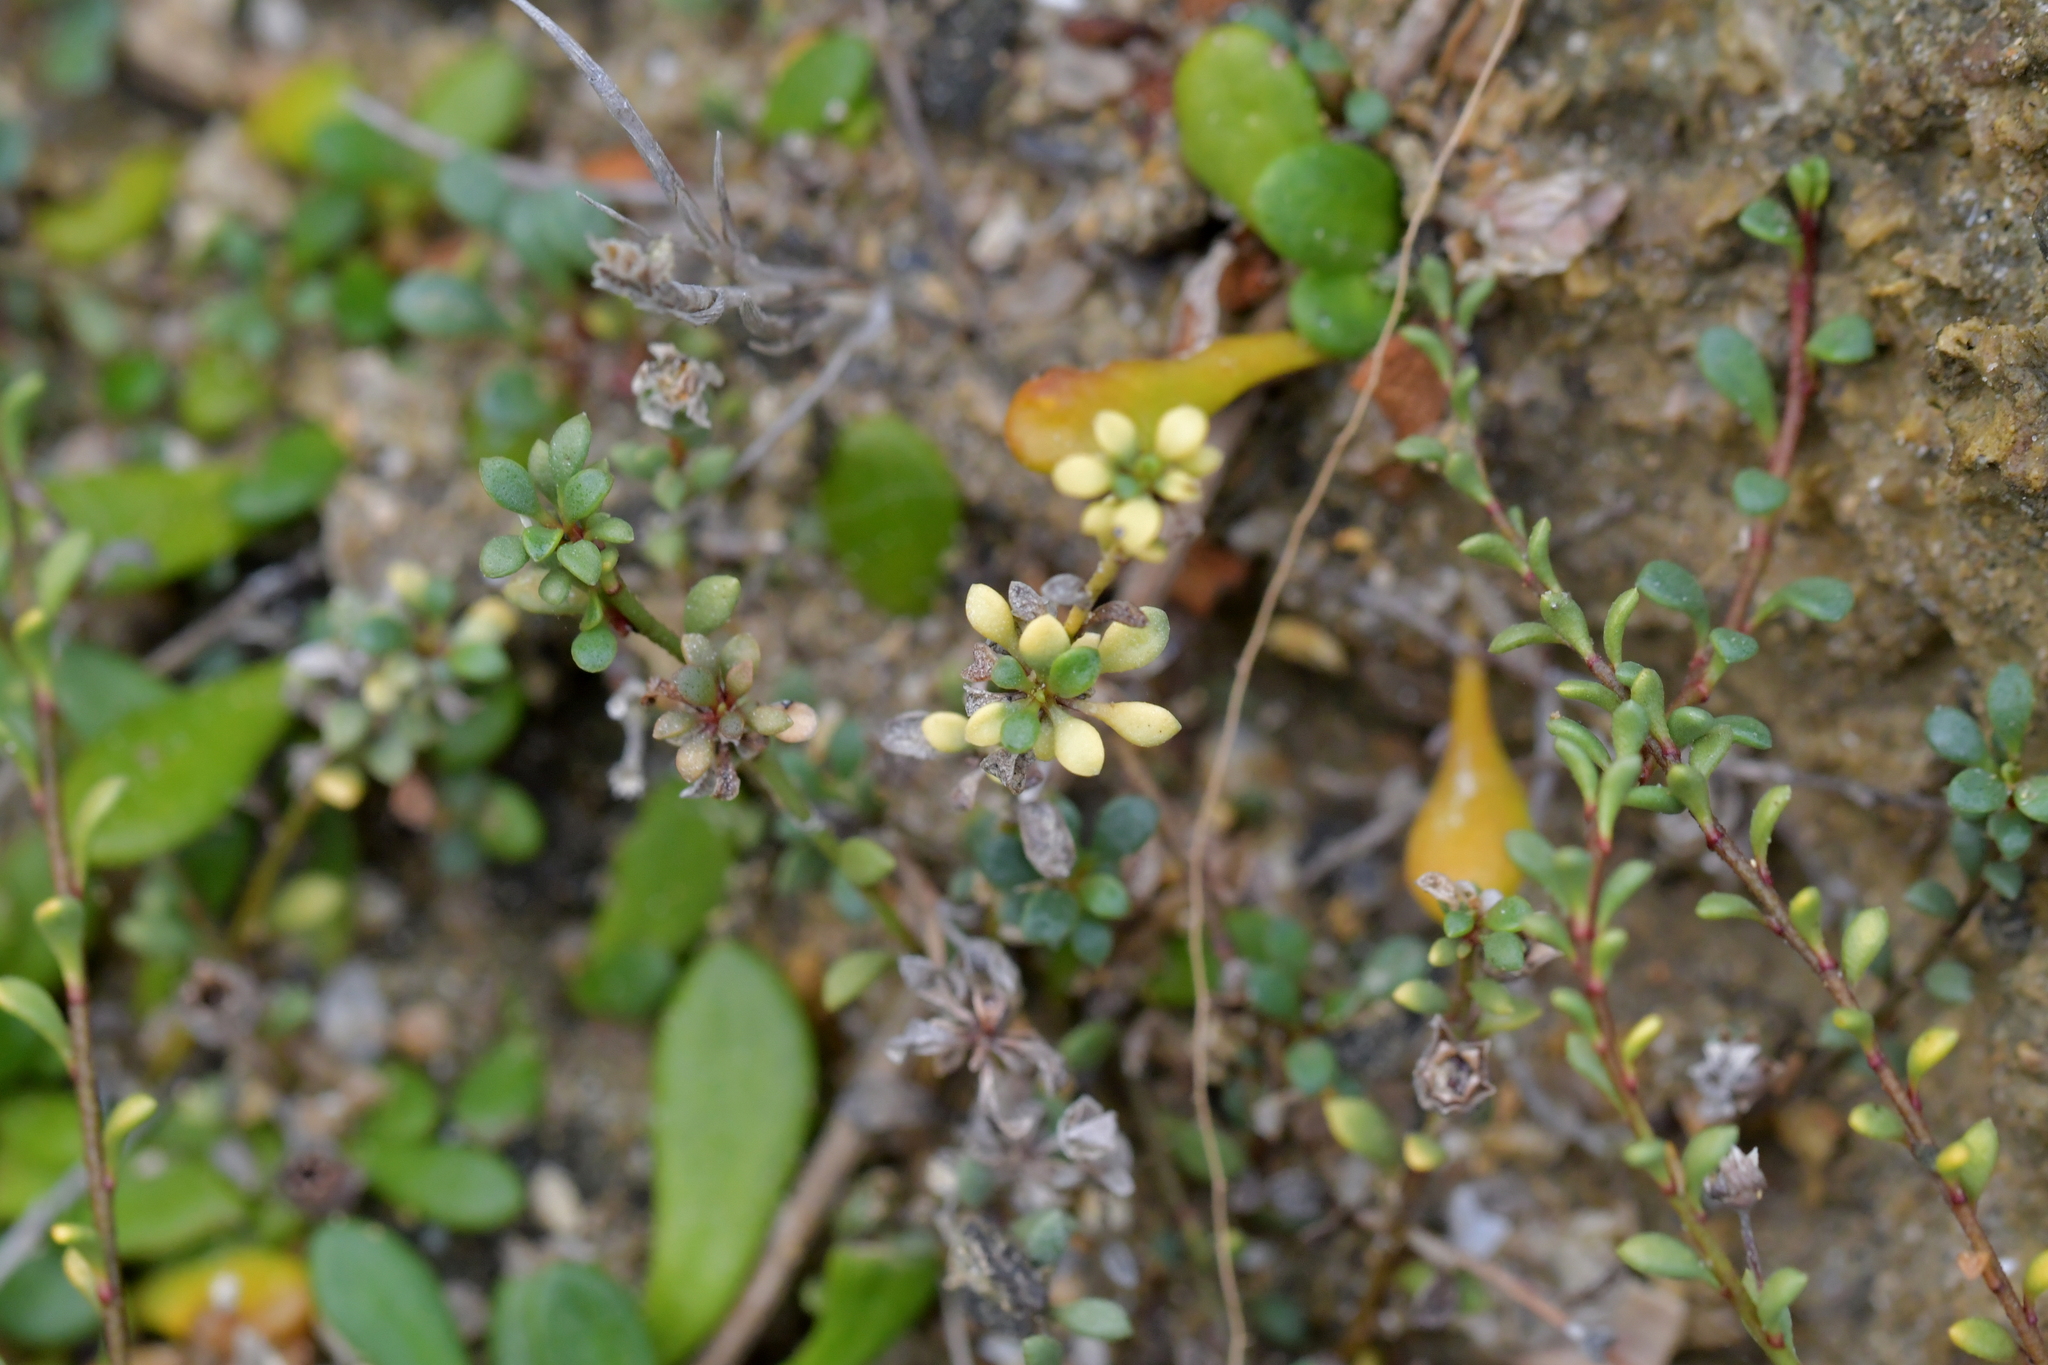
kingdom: Plantae
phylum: Tracheophyta
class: Magnoliopsida
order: Ericales
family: Primulaceae
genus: Samolus
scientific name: Samolus repens
